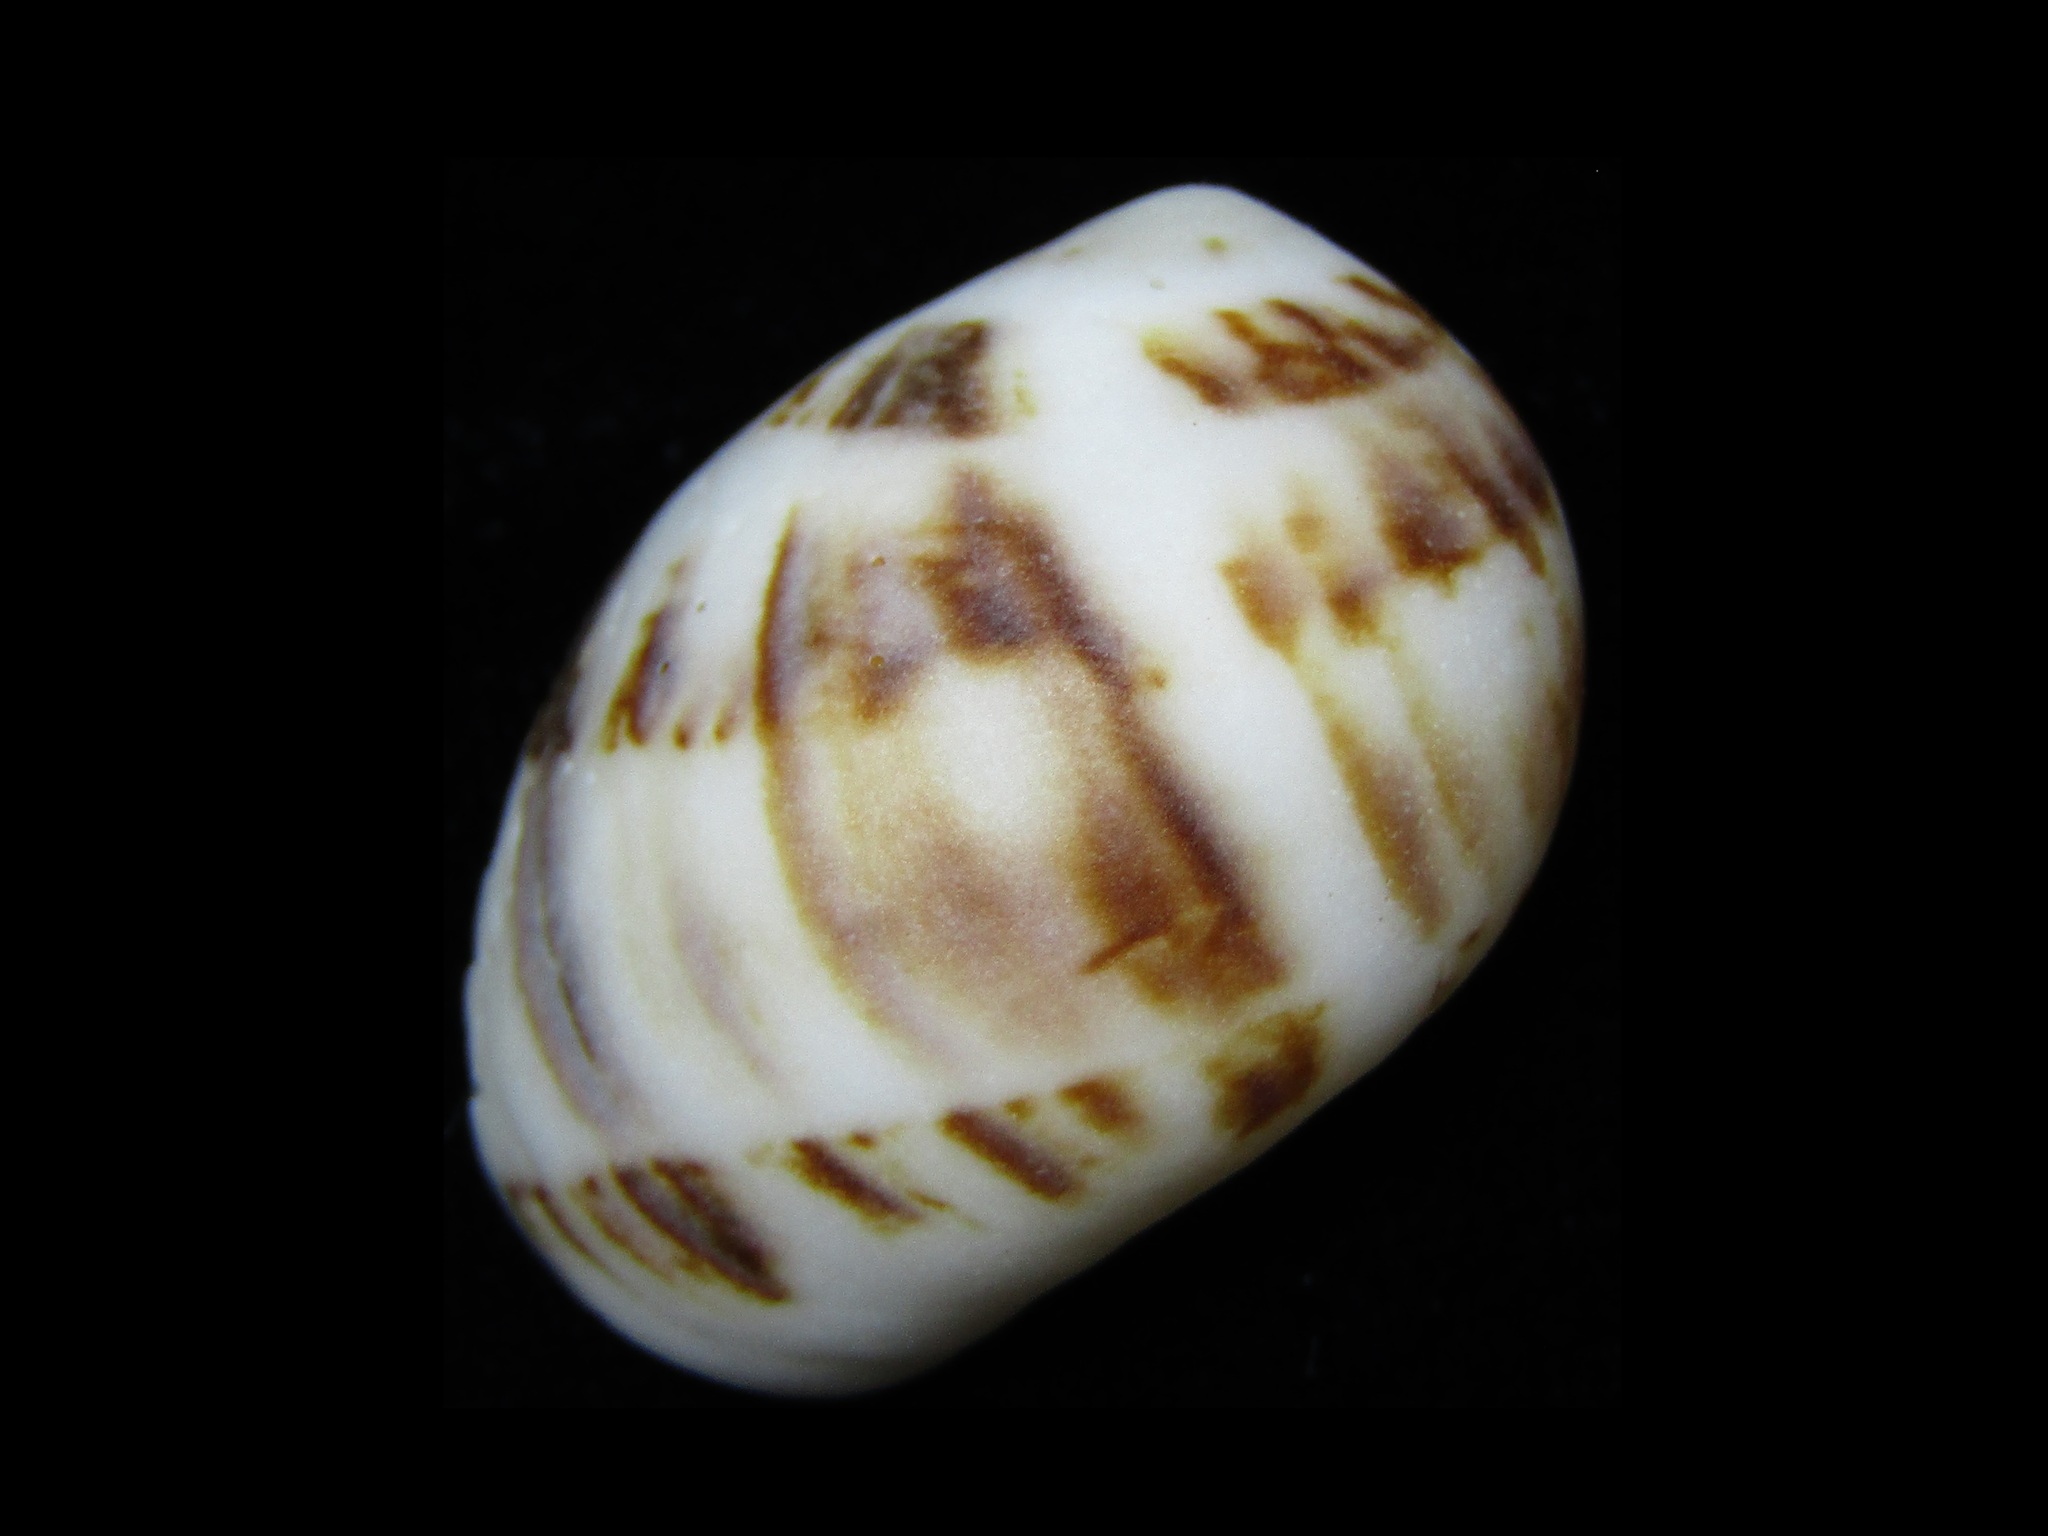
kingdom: Animalia
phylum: Mollusca
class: Gastropoda
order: Littorinimorpha
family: Naticidae
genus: Mammilla
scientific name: Mammilla simiae
